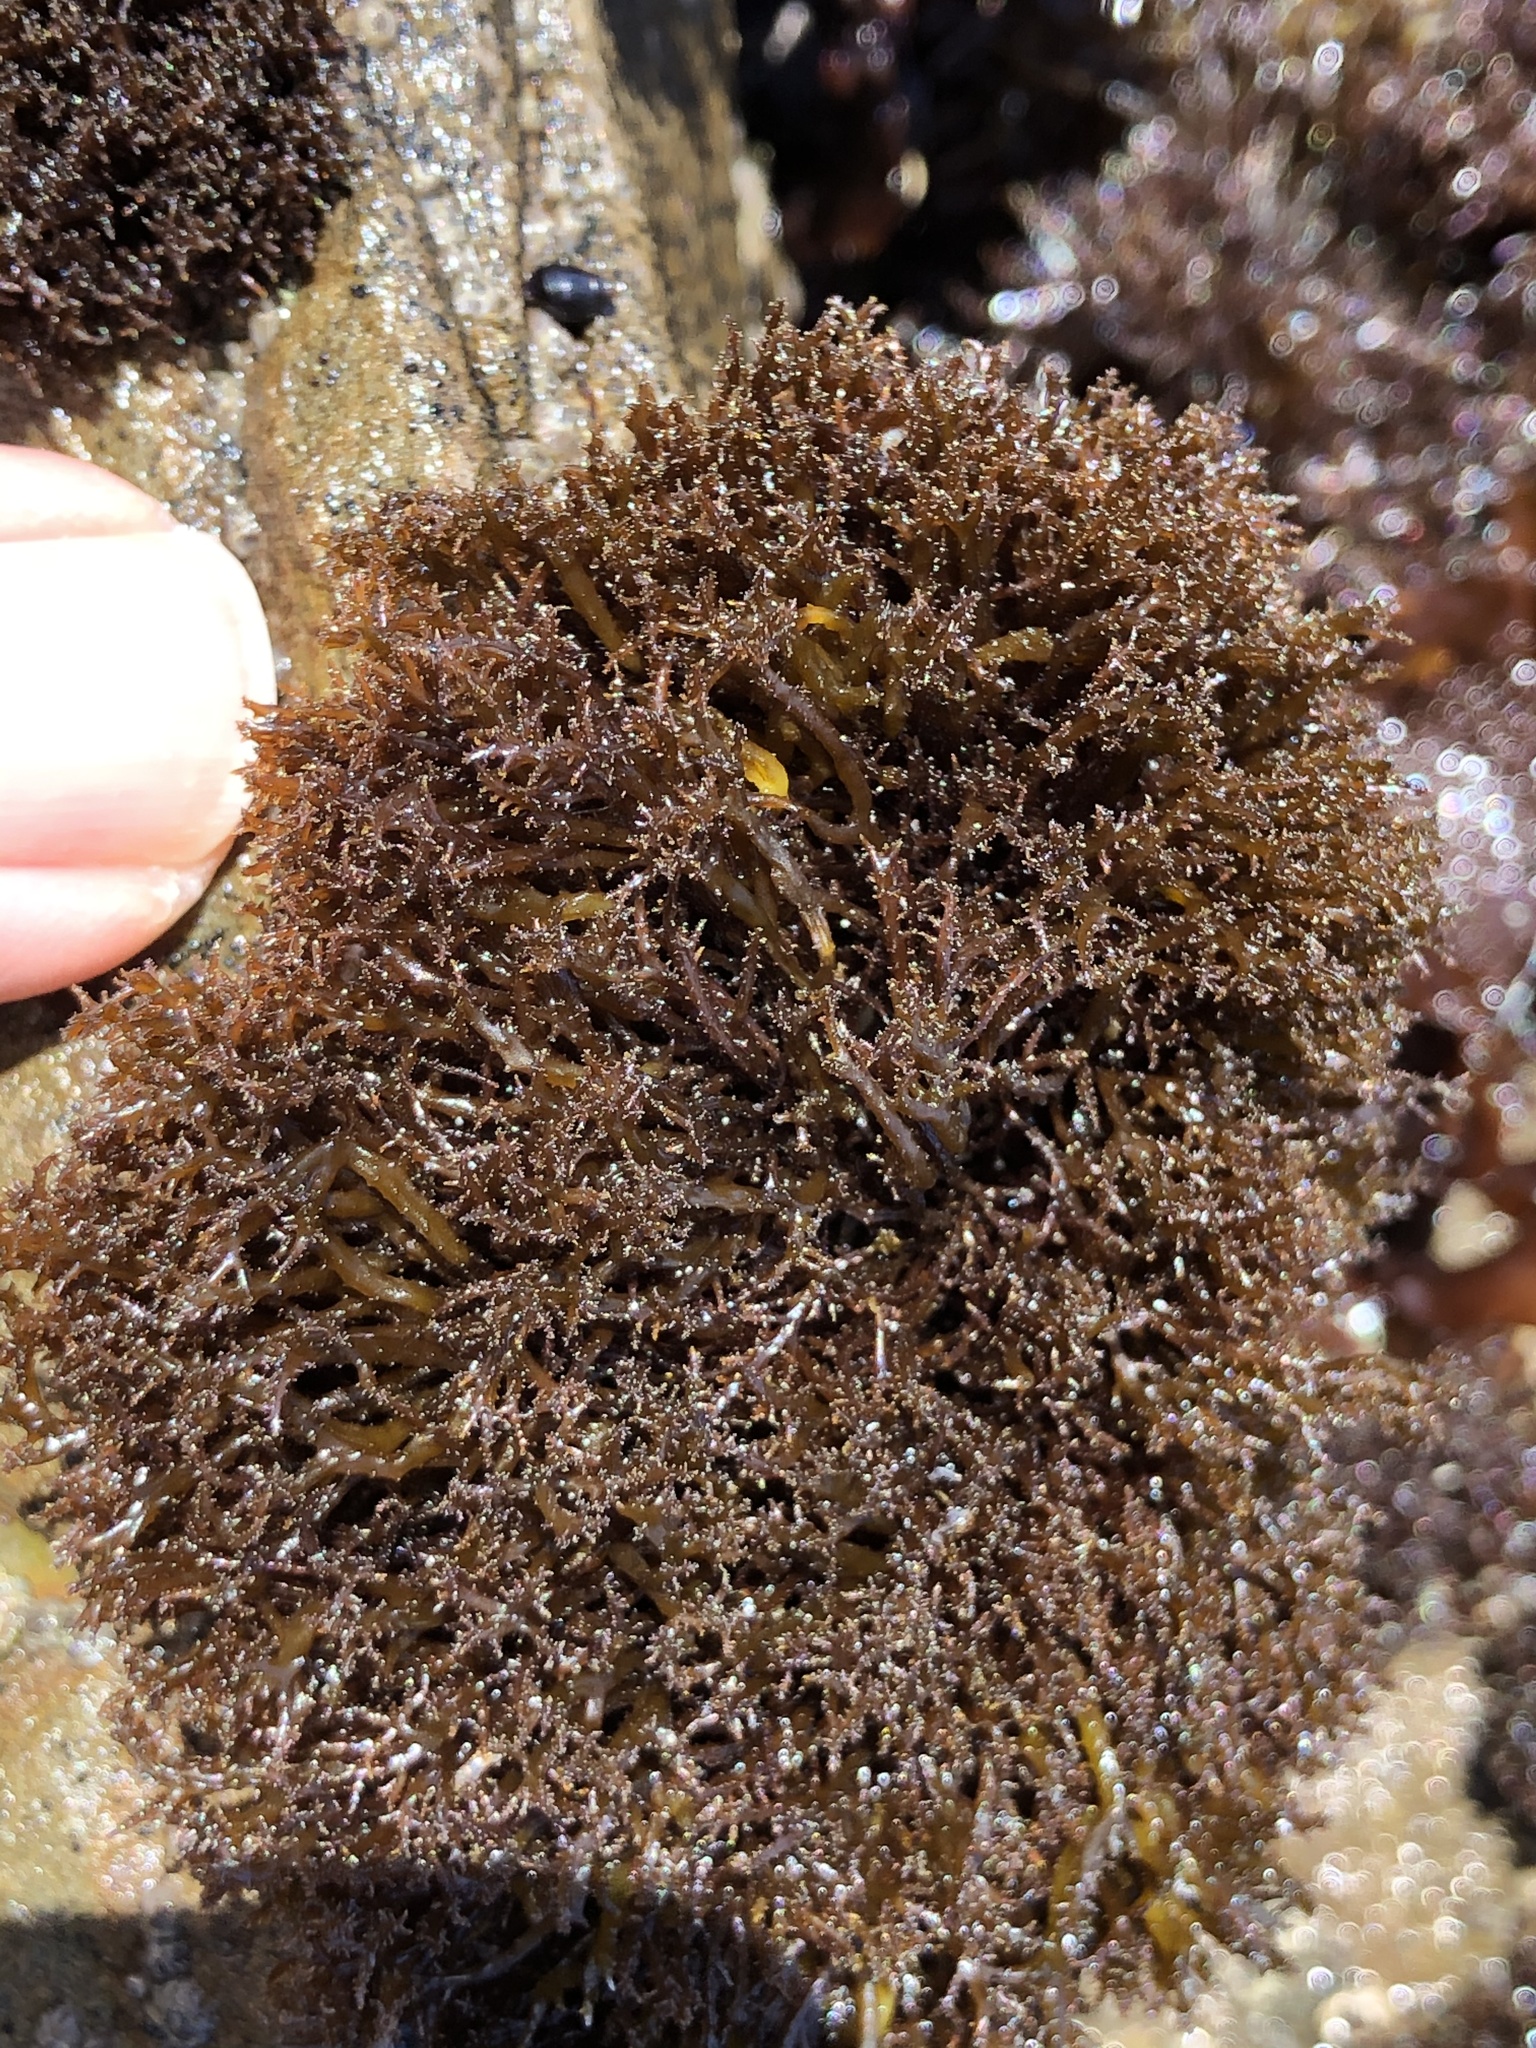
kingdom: Plantae
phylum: Rhodophyta
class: Florideophyceae
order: Gigartinales
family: Endocladiaceae
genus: Endocladia
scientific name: Endocladia muricata
